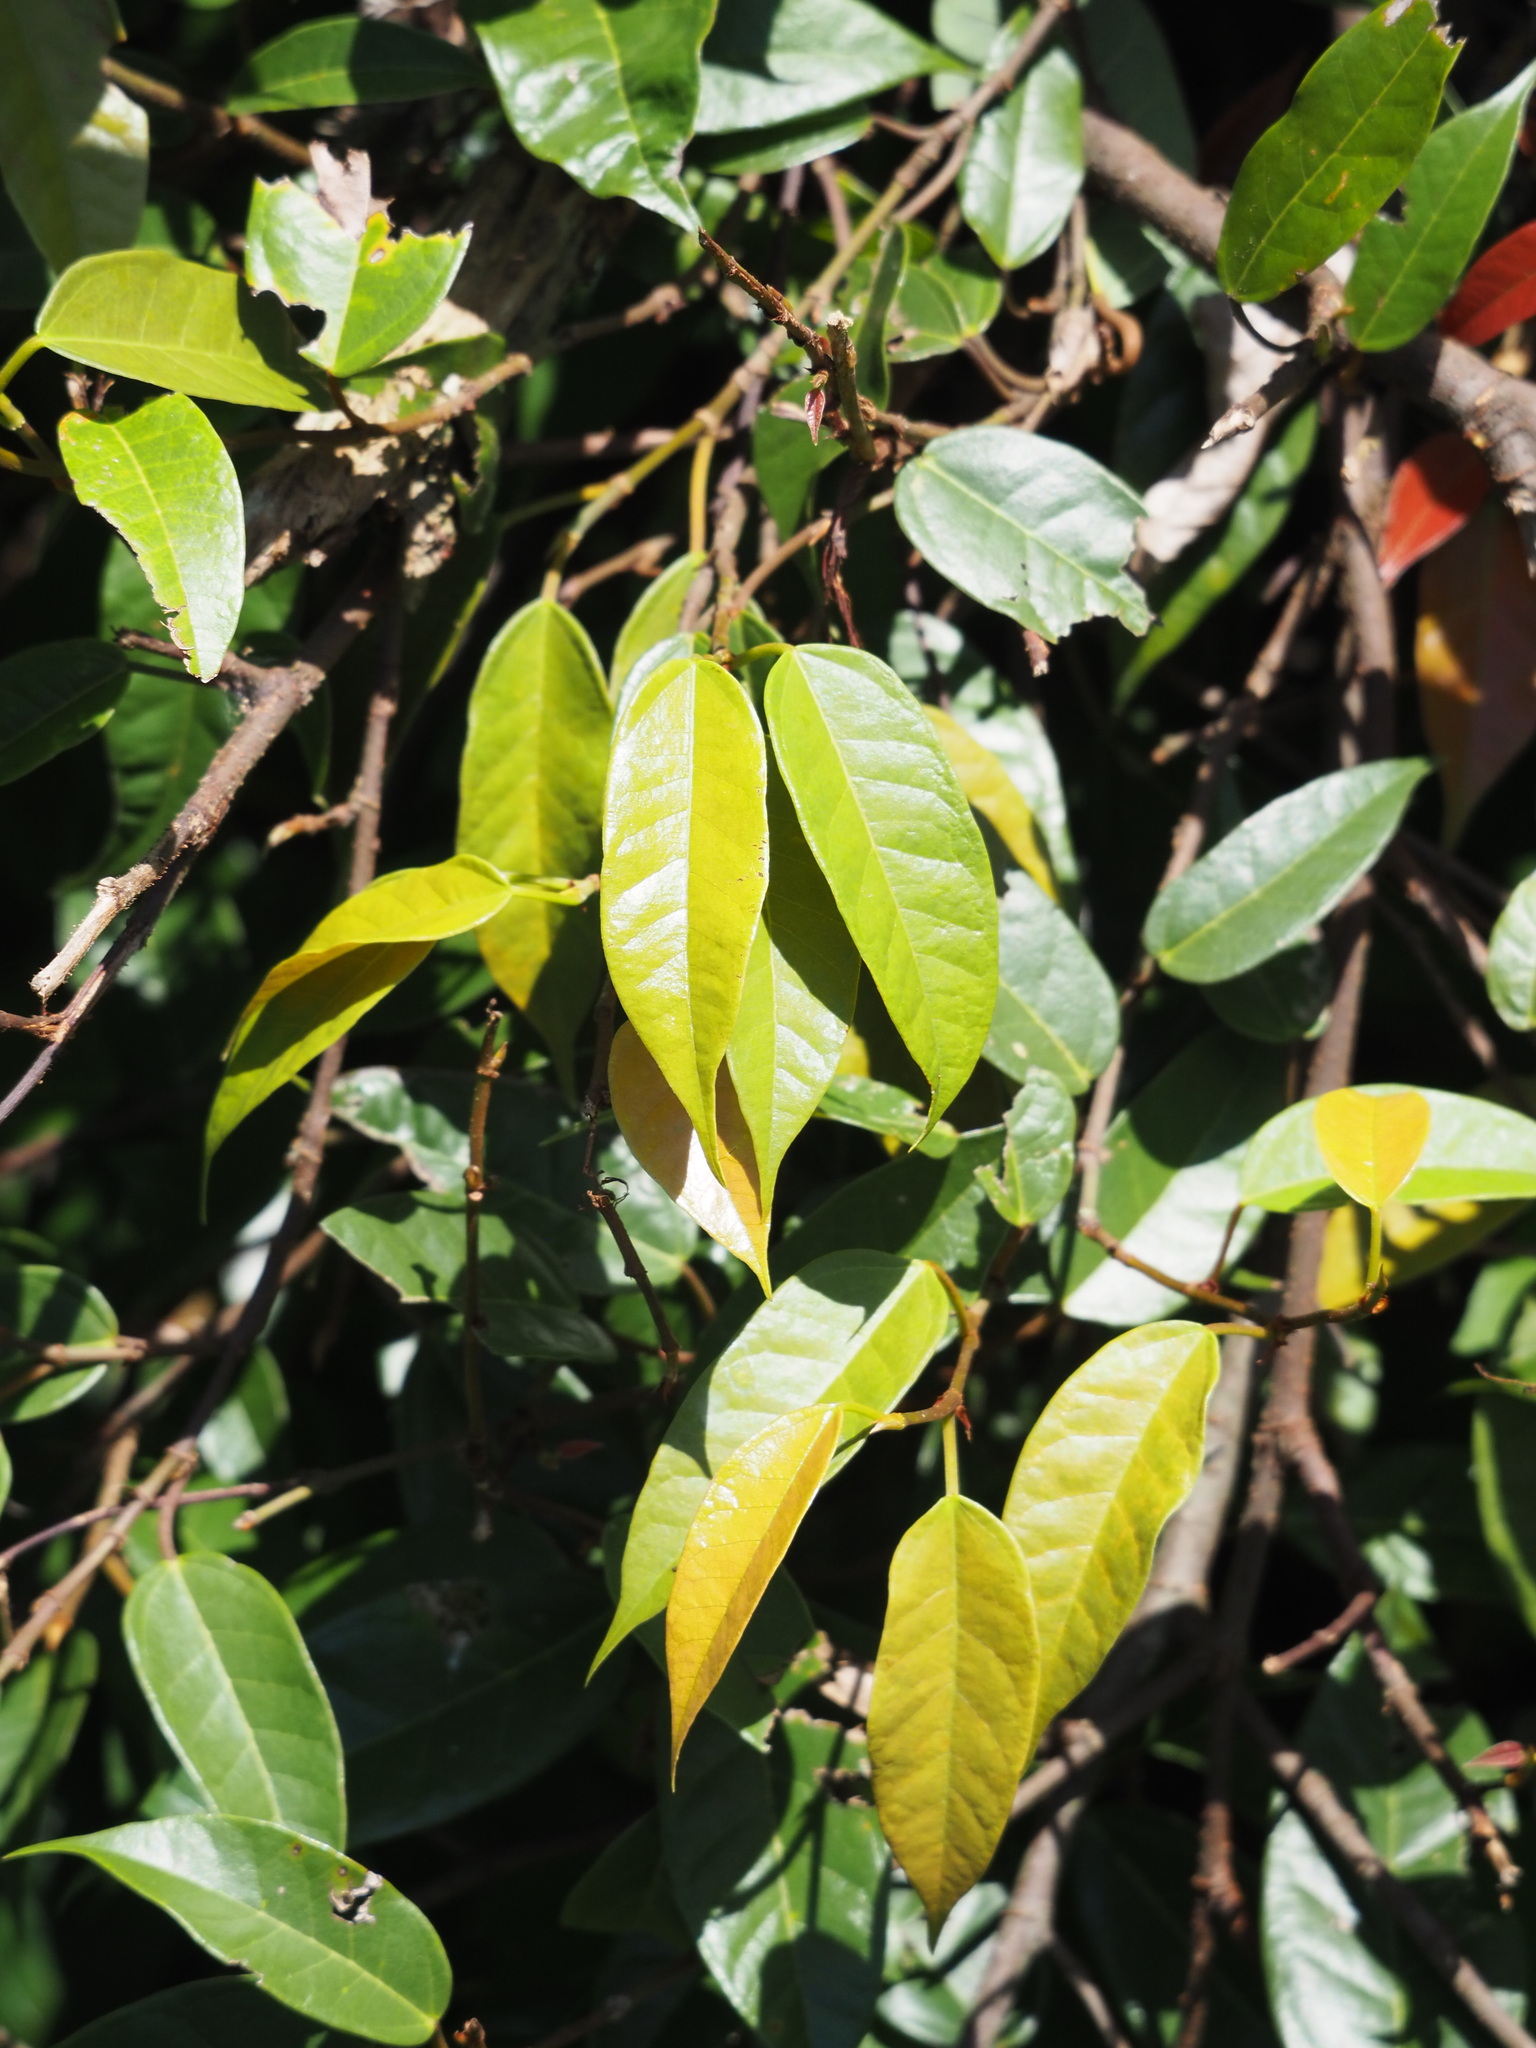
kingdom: Plantae
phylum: Tracheophyta
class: Magnoliopsida
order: Rosales
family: Moraceae
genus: Ficus
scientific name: Ficus sarmentosa
